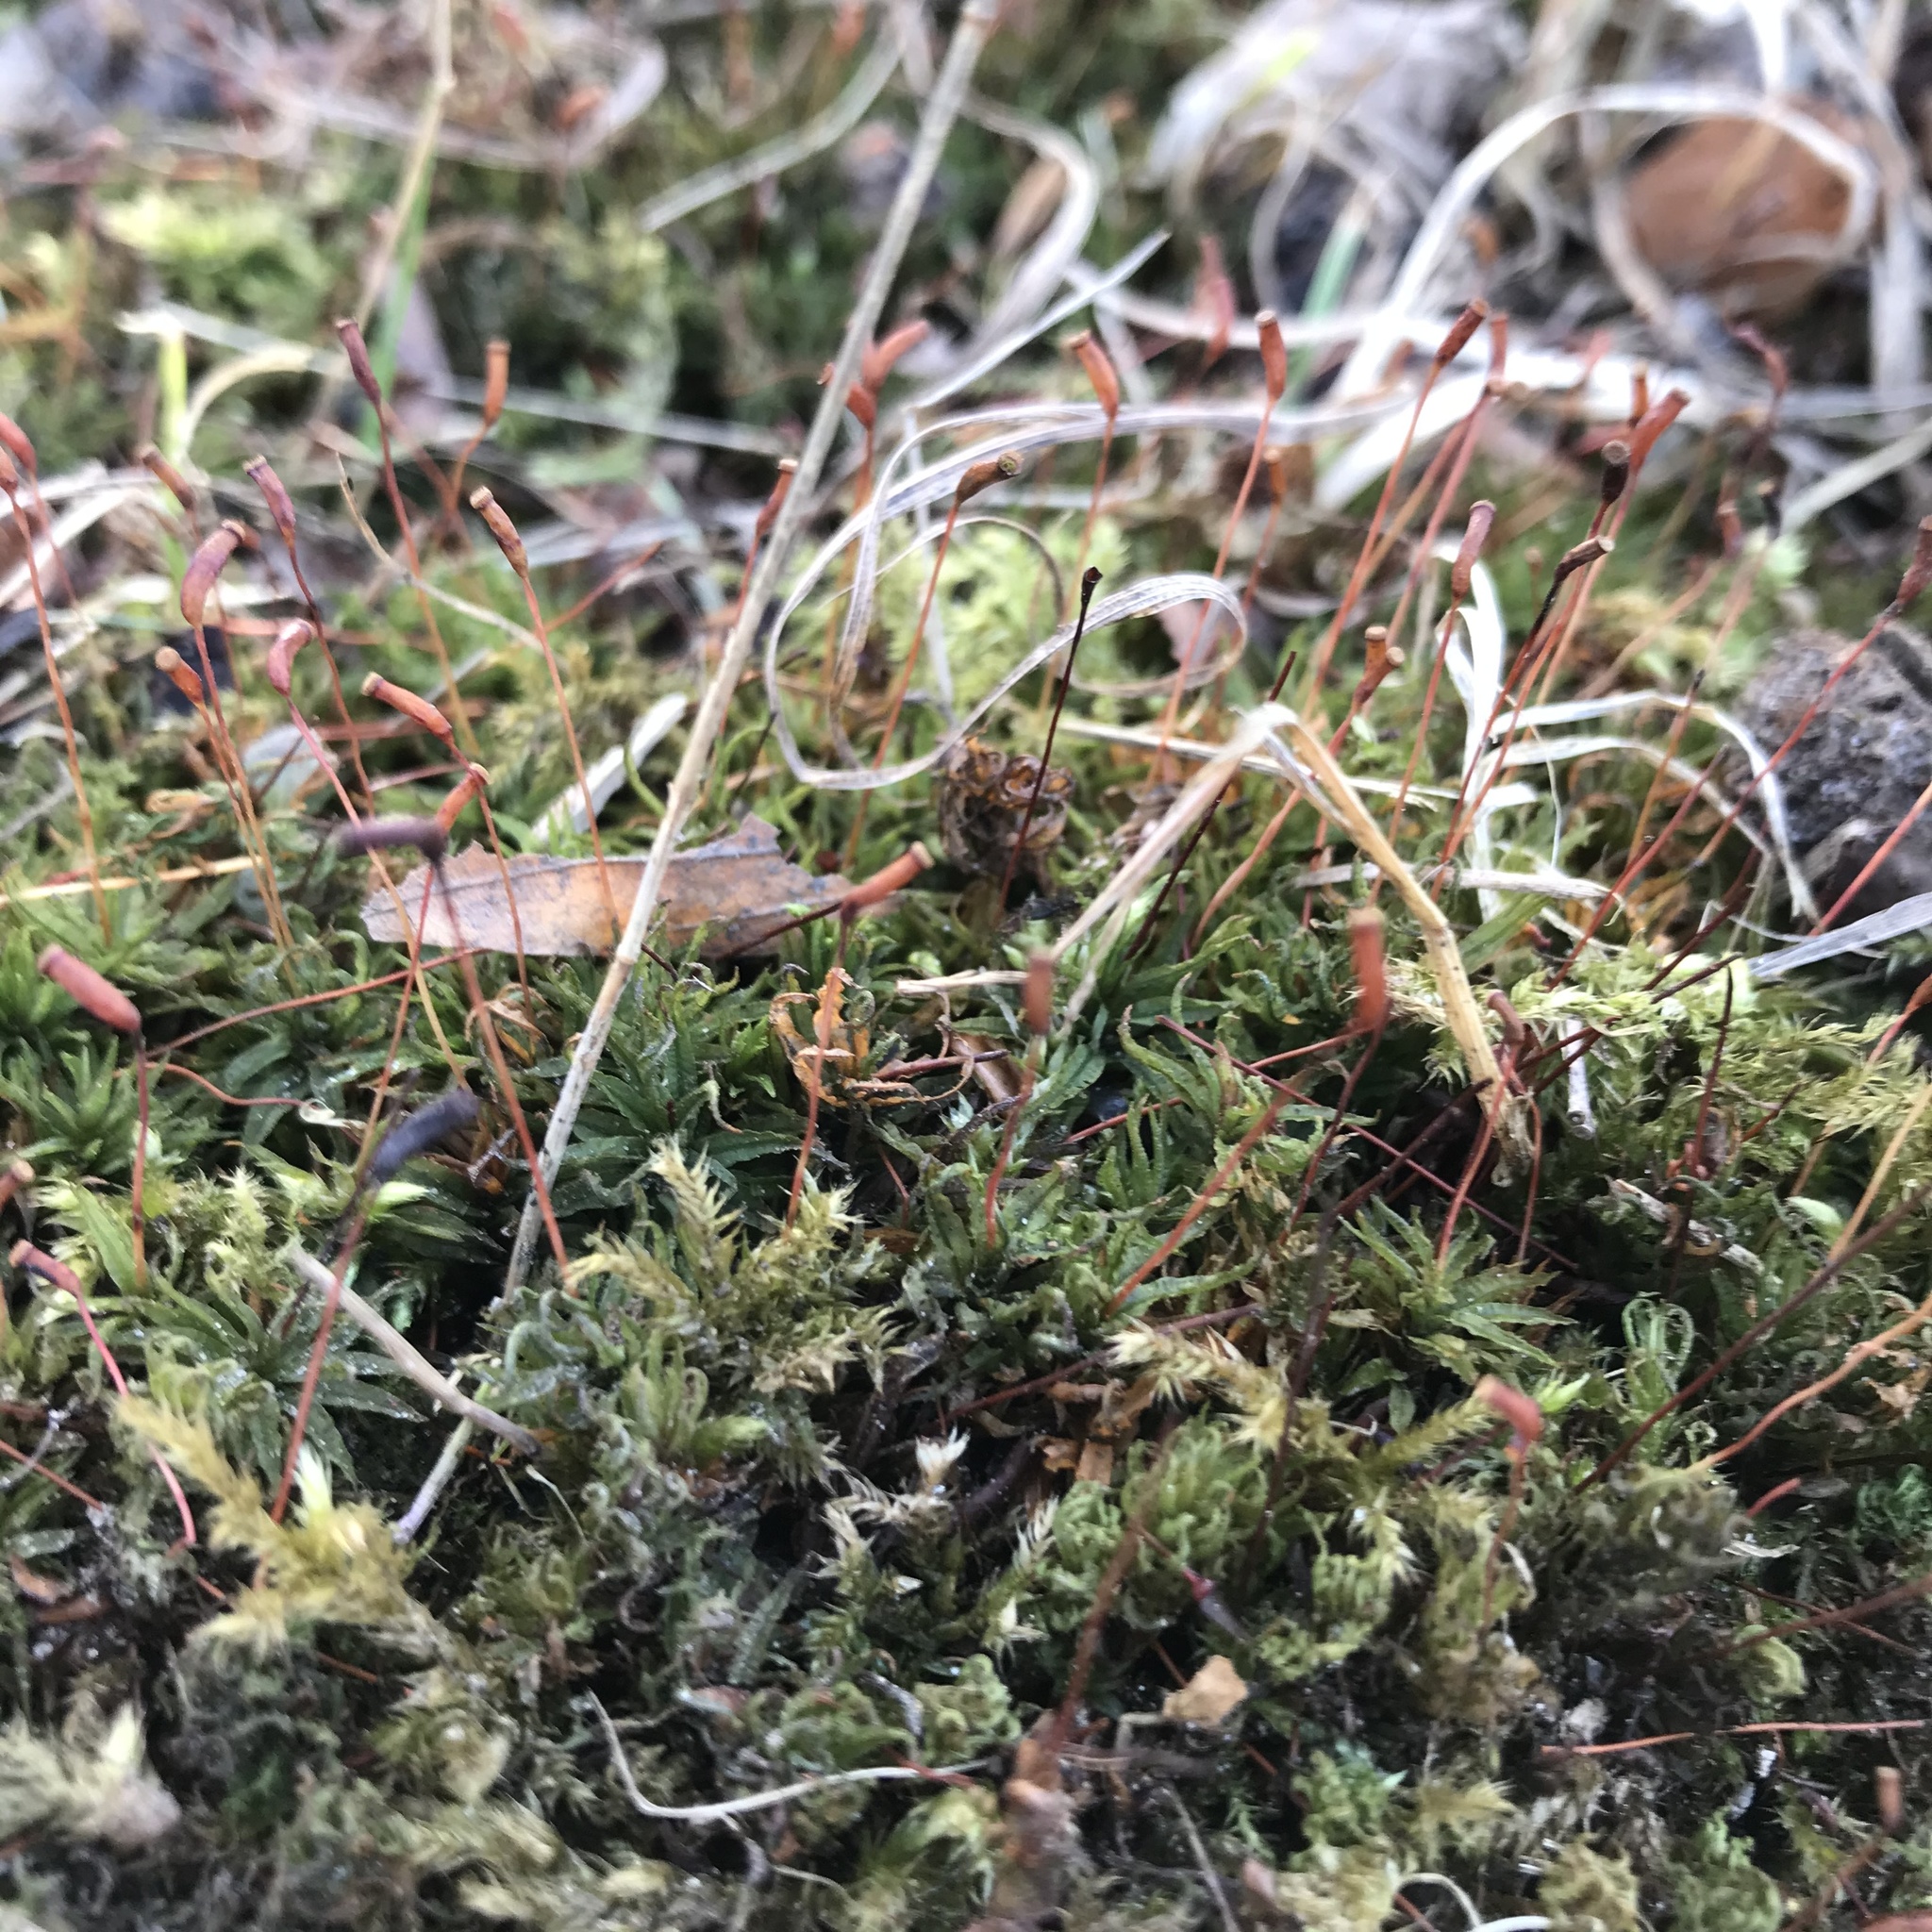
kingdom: Plantae
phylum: Bryophyta
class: Polytrichopsida
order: Polytrichales
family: Polytrichaceae
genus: Atrichum
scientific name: Atrichum undulatum
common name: Common smoothcap
